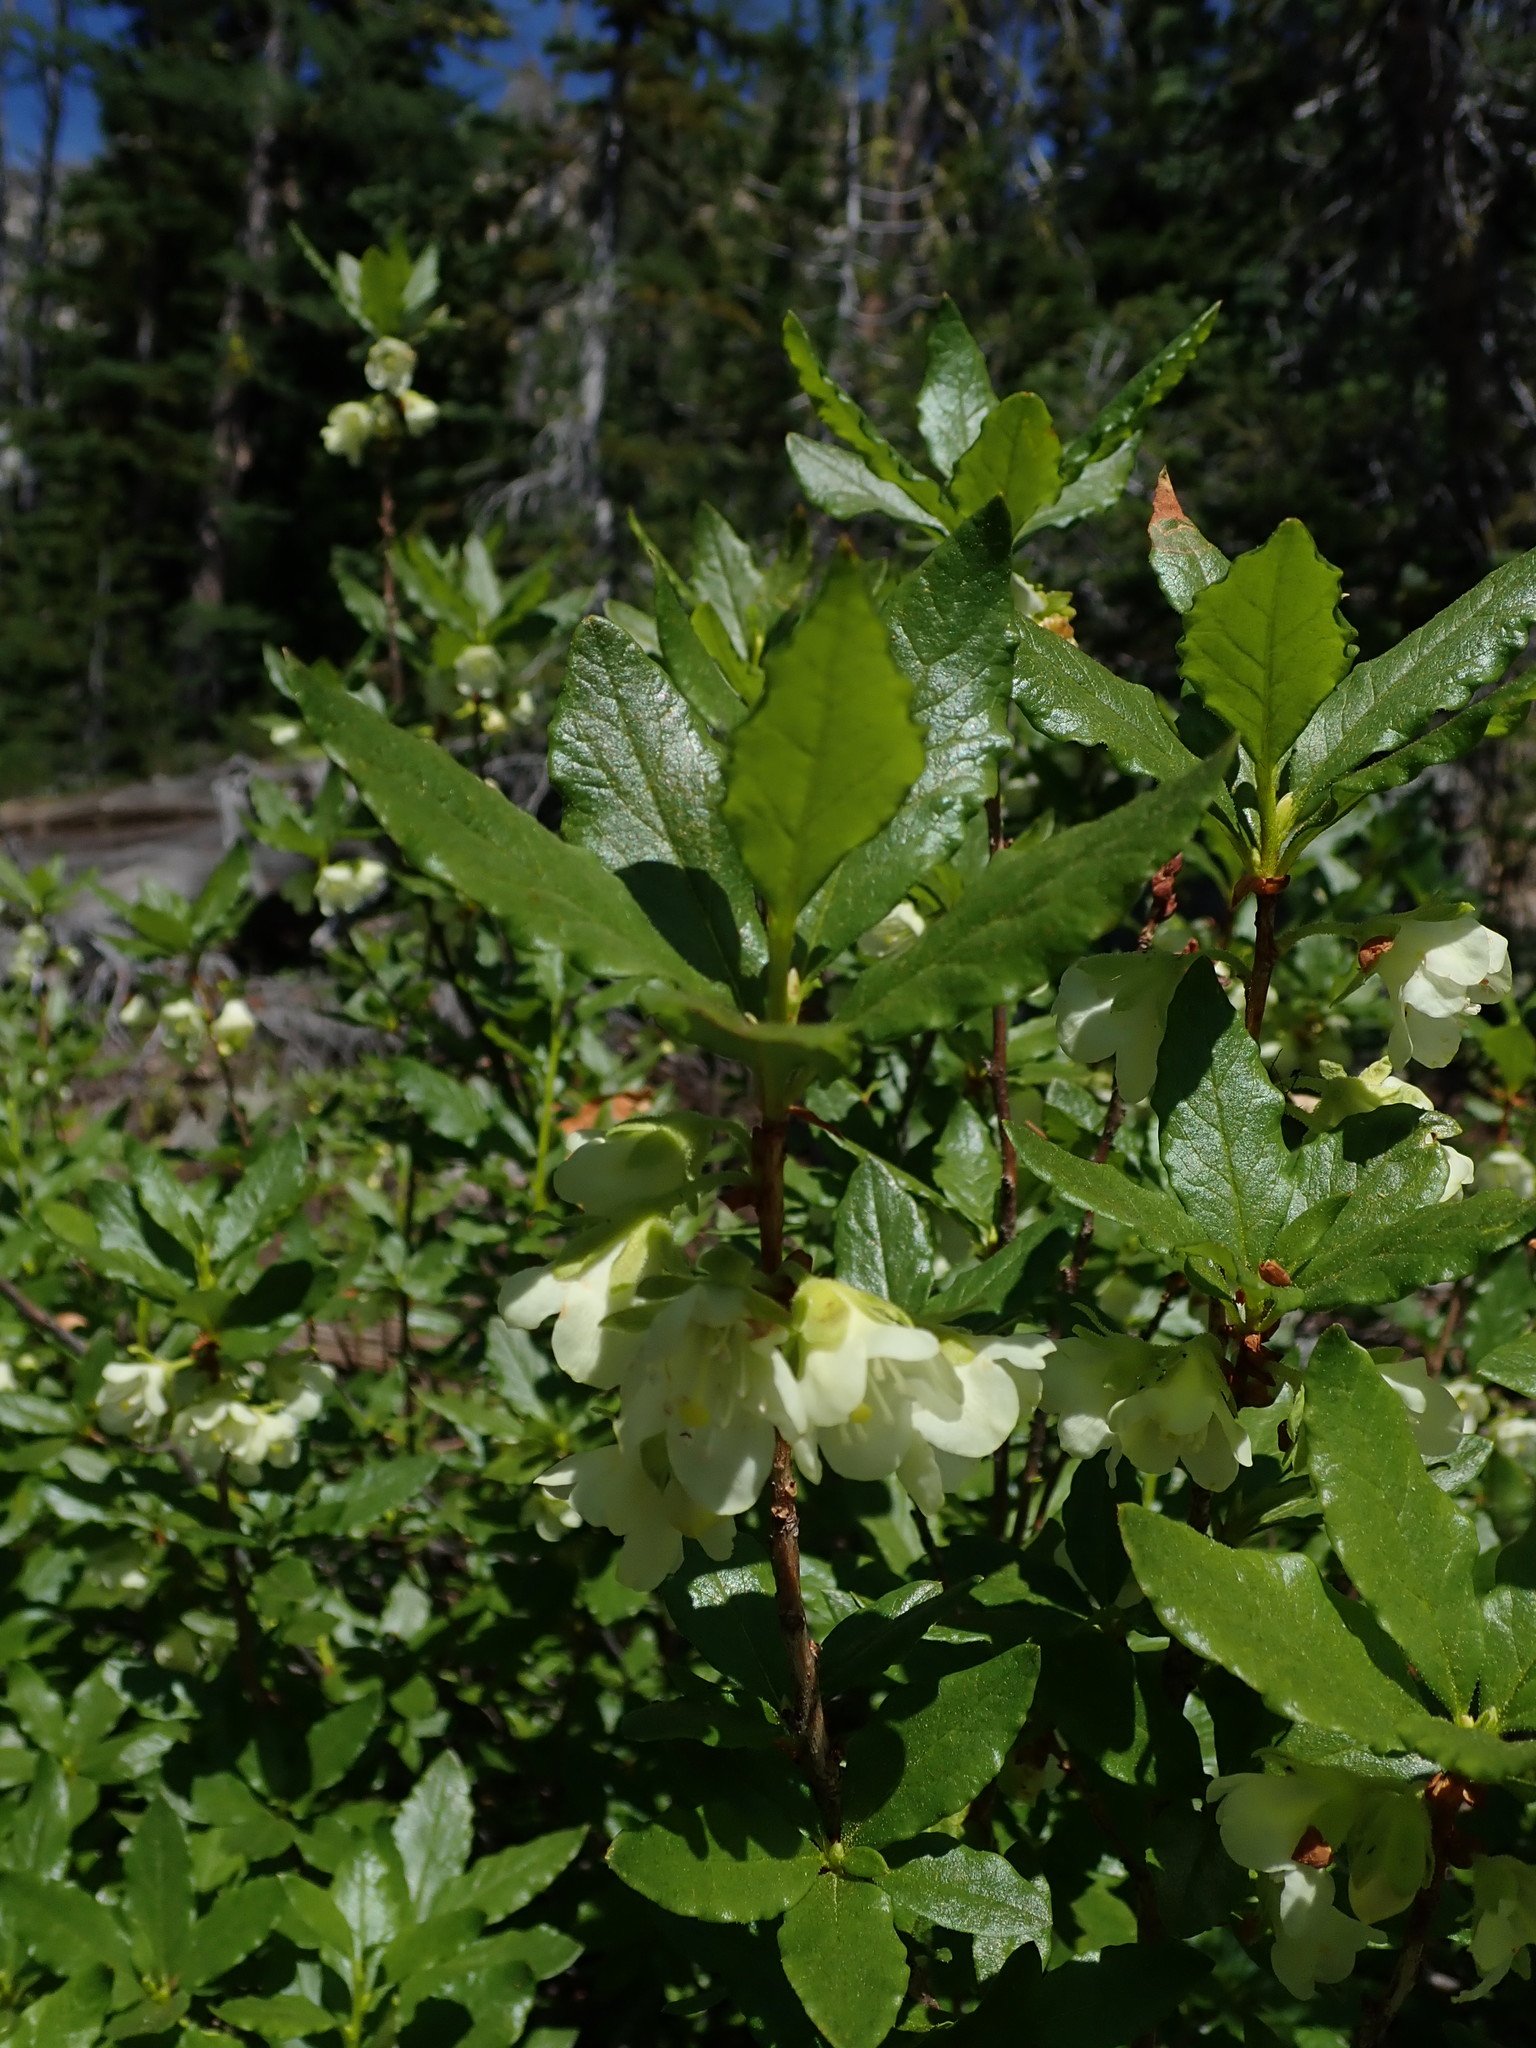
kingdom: Plantae
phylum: Tracheophyta
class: Magnoliopsida
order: Ericales
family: Ericaceae
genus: Rhododendron
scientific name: Rhododendron albiflorum
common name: White rhododendron
